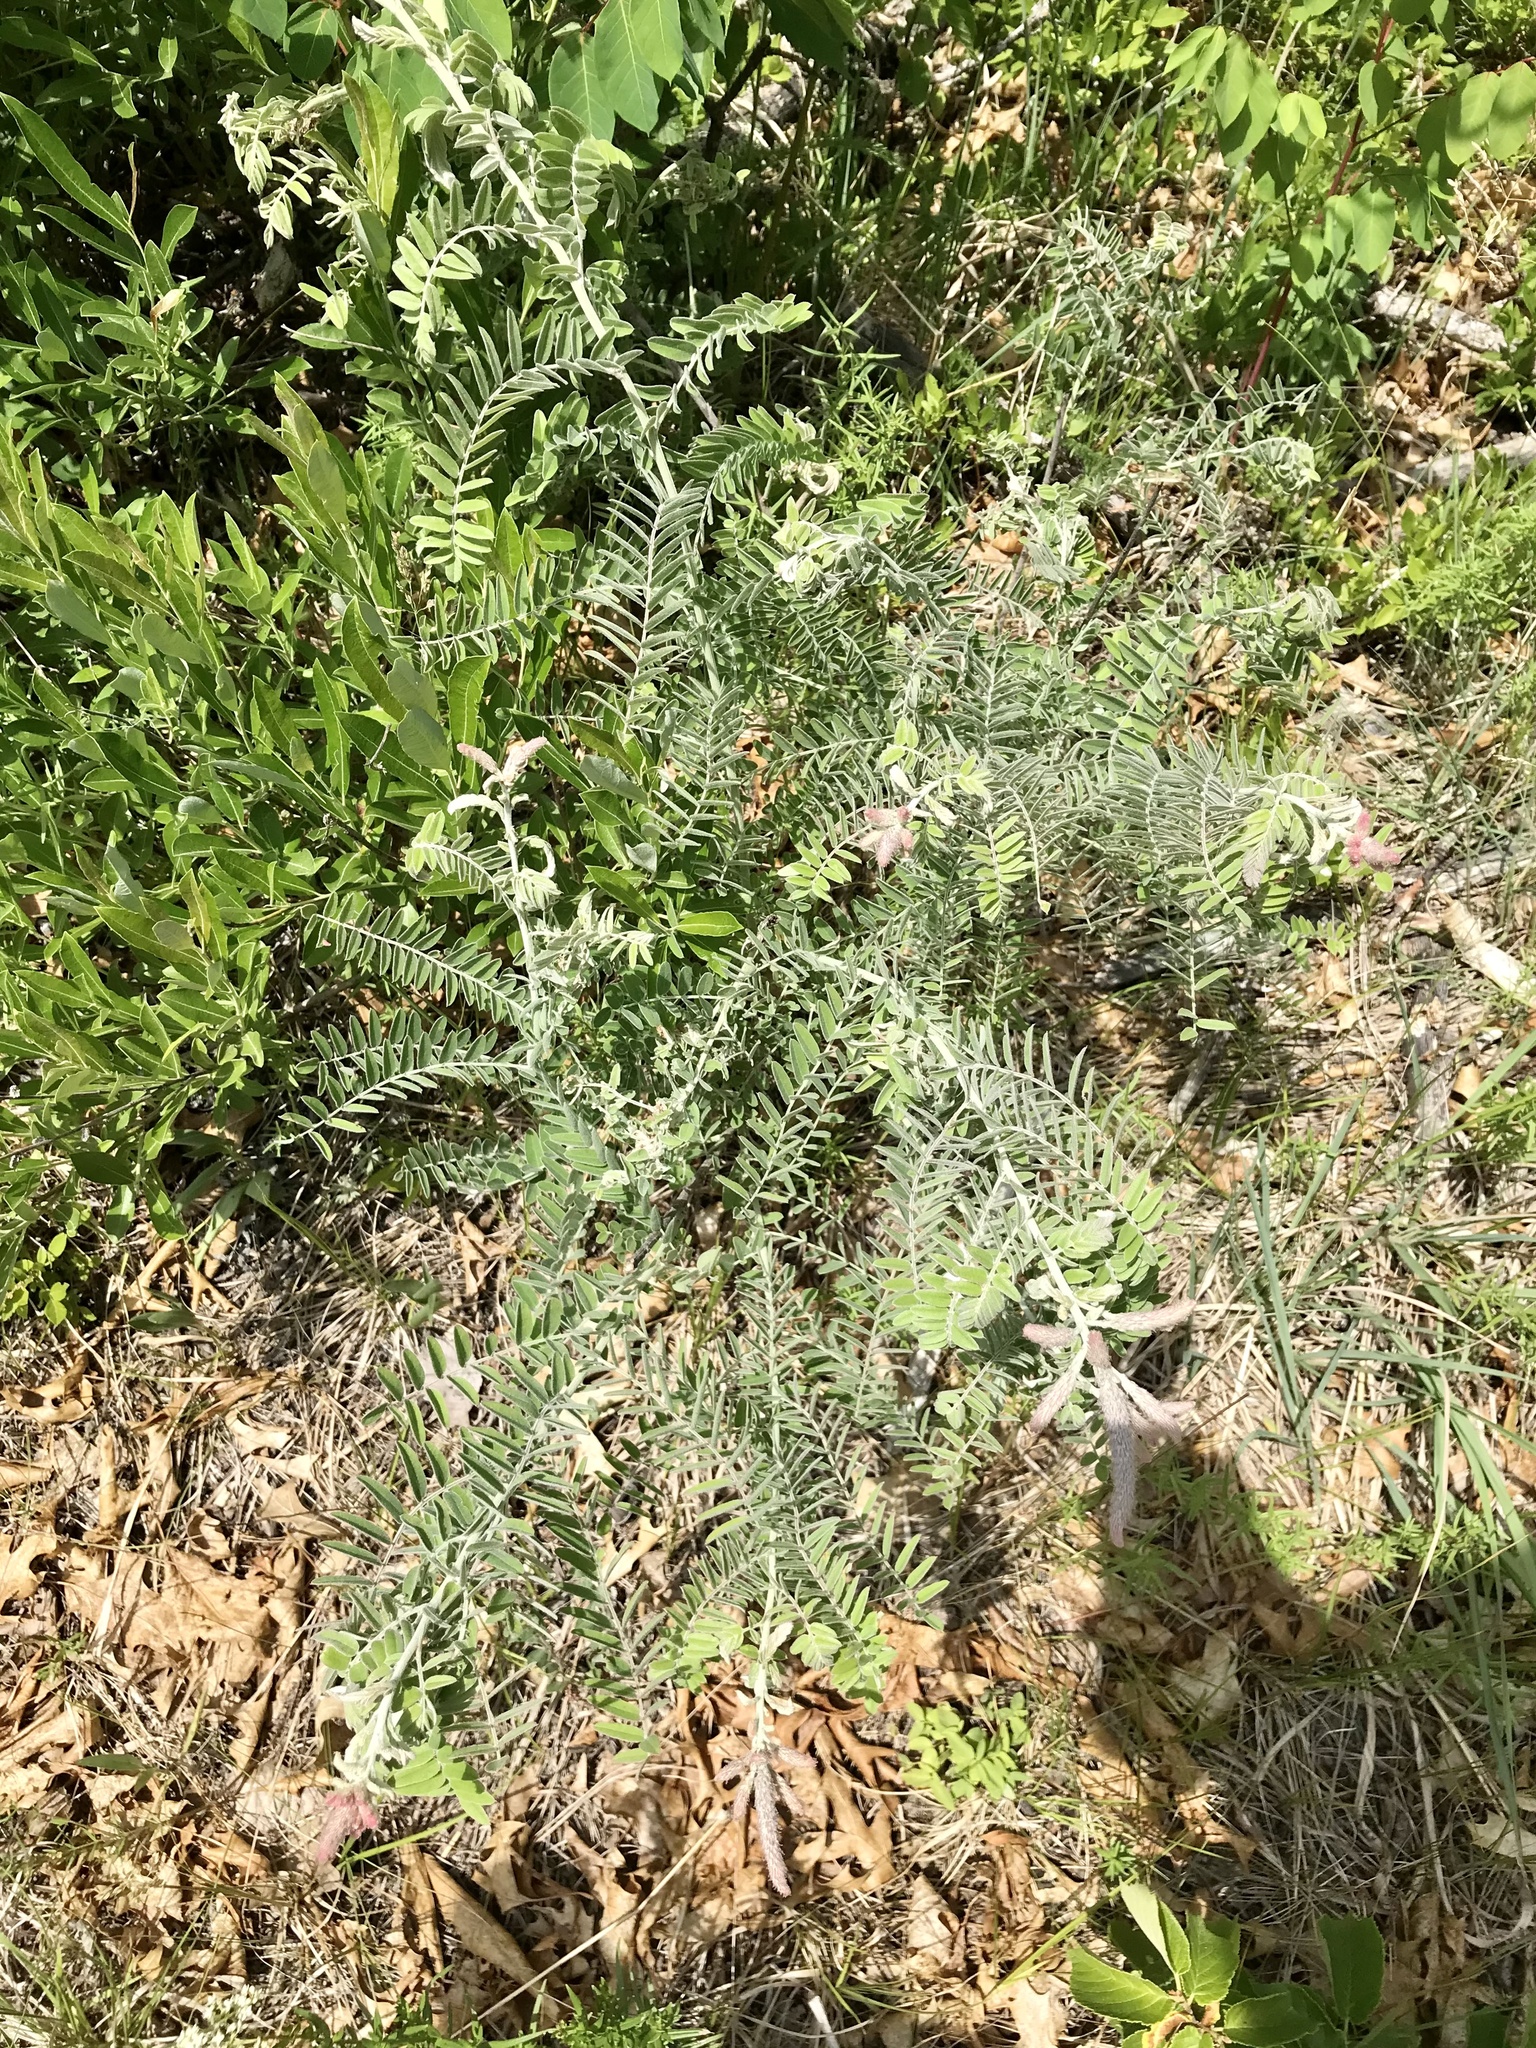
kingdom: Plantae
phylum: Tracheophyta
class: Magnoliopsida
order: Fabales
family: Fabaceae
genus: Amorpha
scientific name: Amorpha canescens
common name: Leadplant
